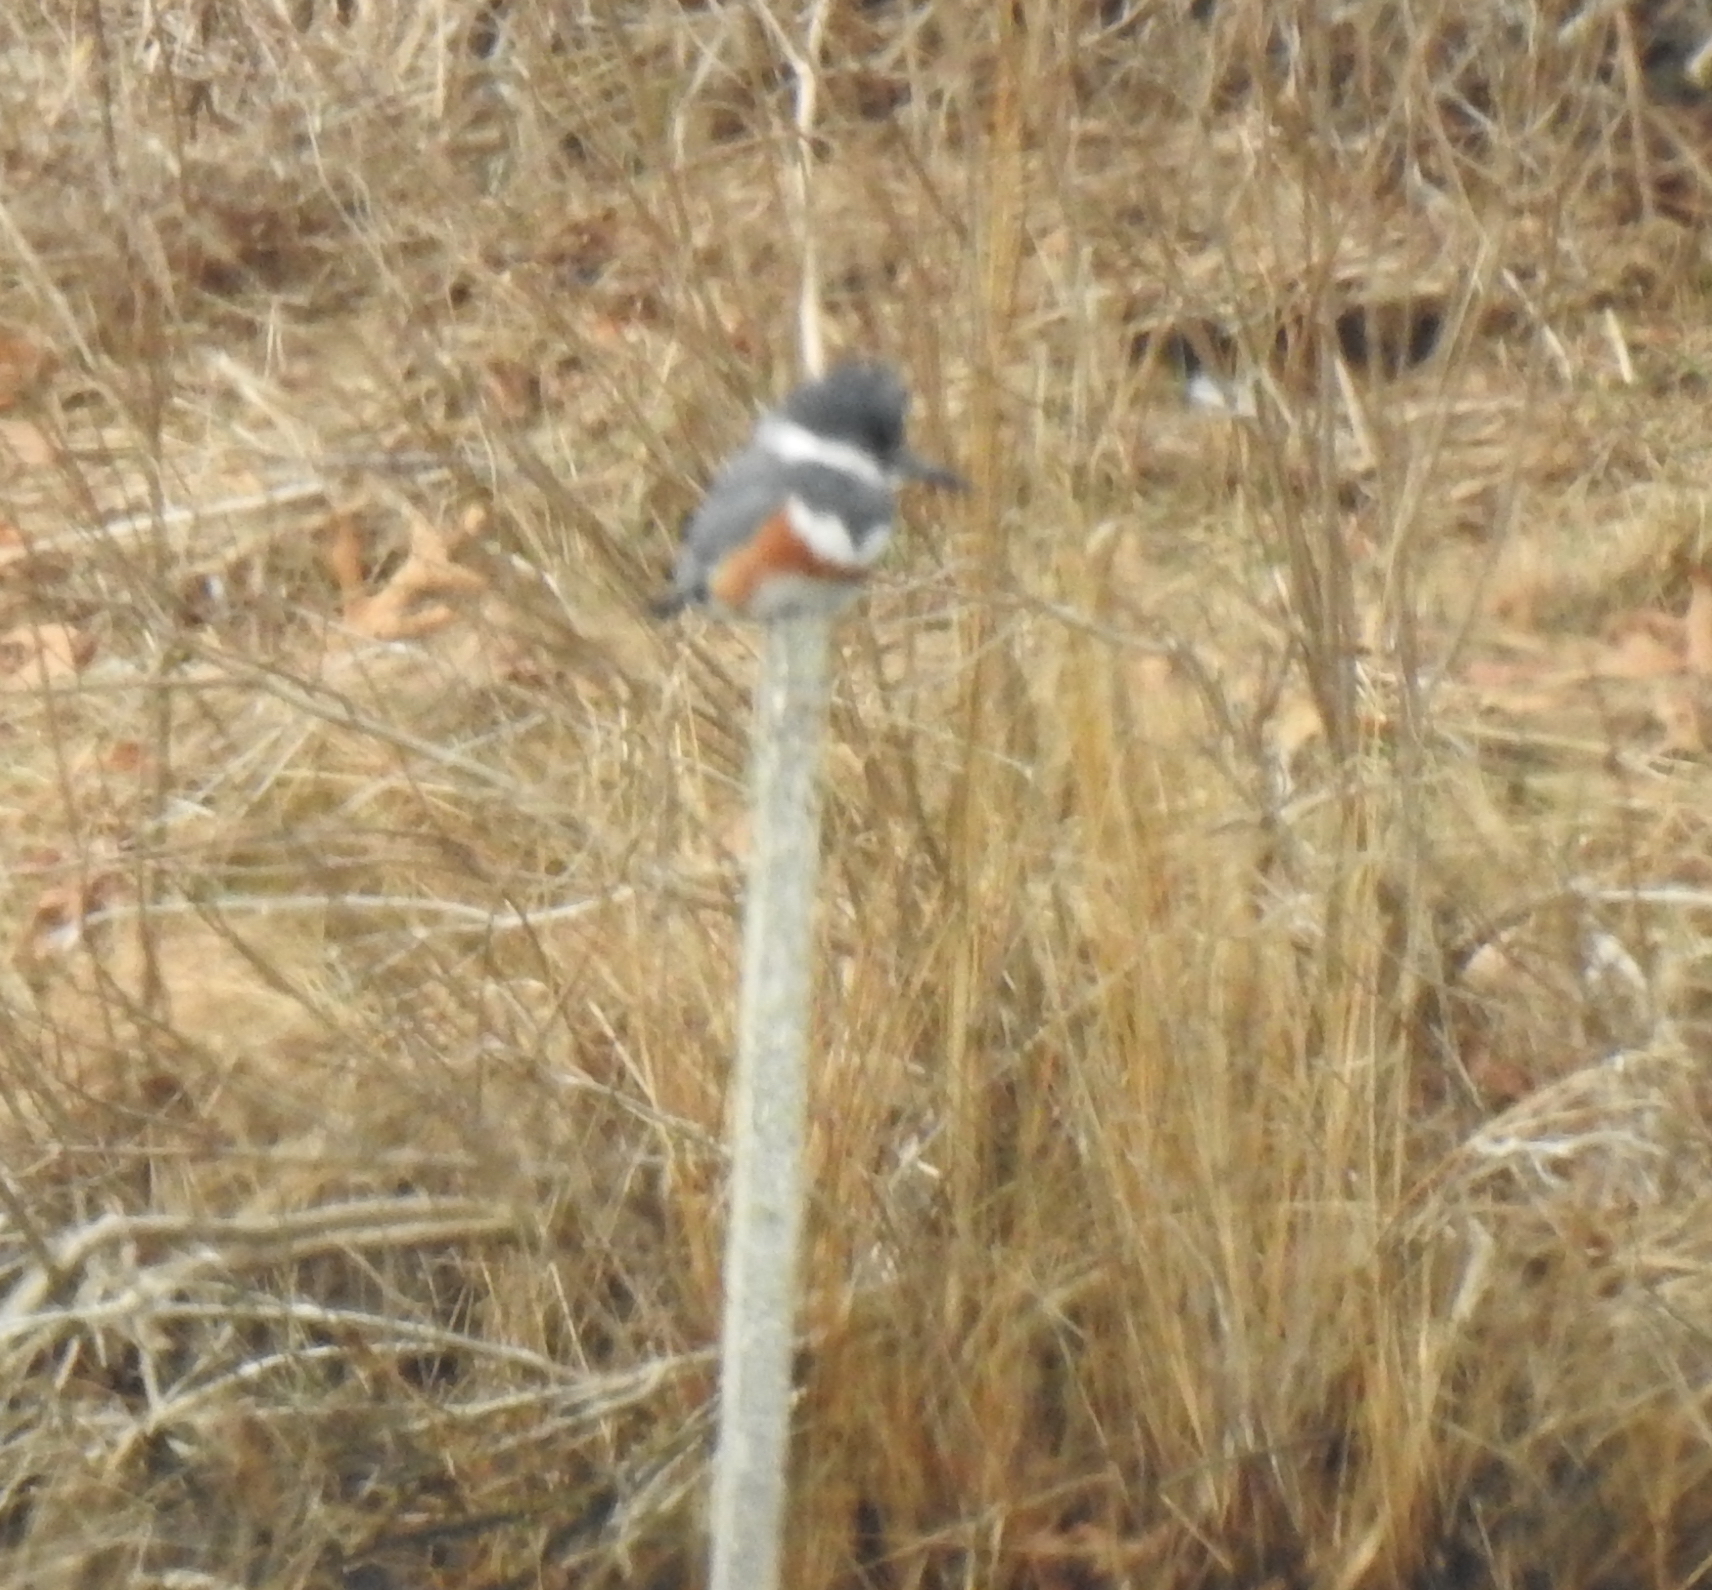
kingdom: Animalia
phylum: Chordata
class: Aves
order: Coraciiformes
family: Alcedinidae
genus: Megaceryle
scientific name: Megaceryle alcyon
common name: Belted kingfisher
